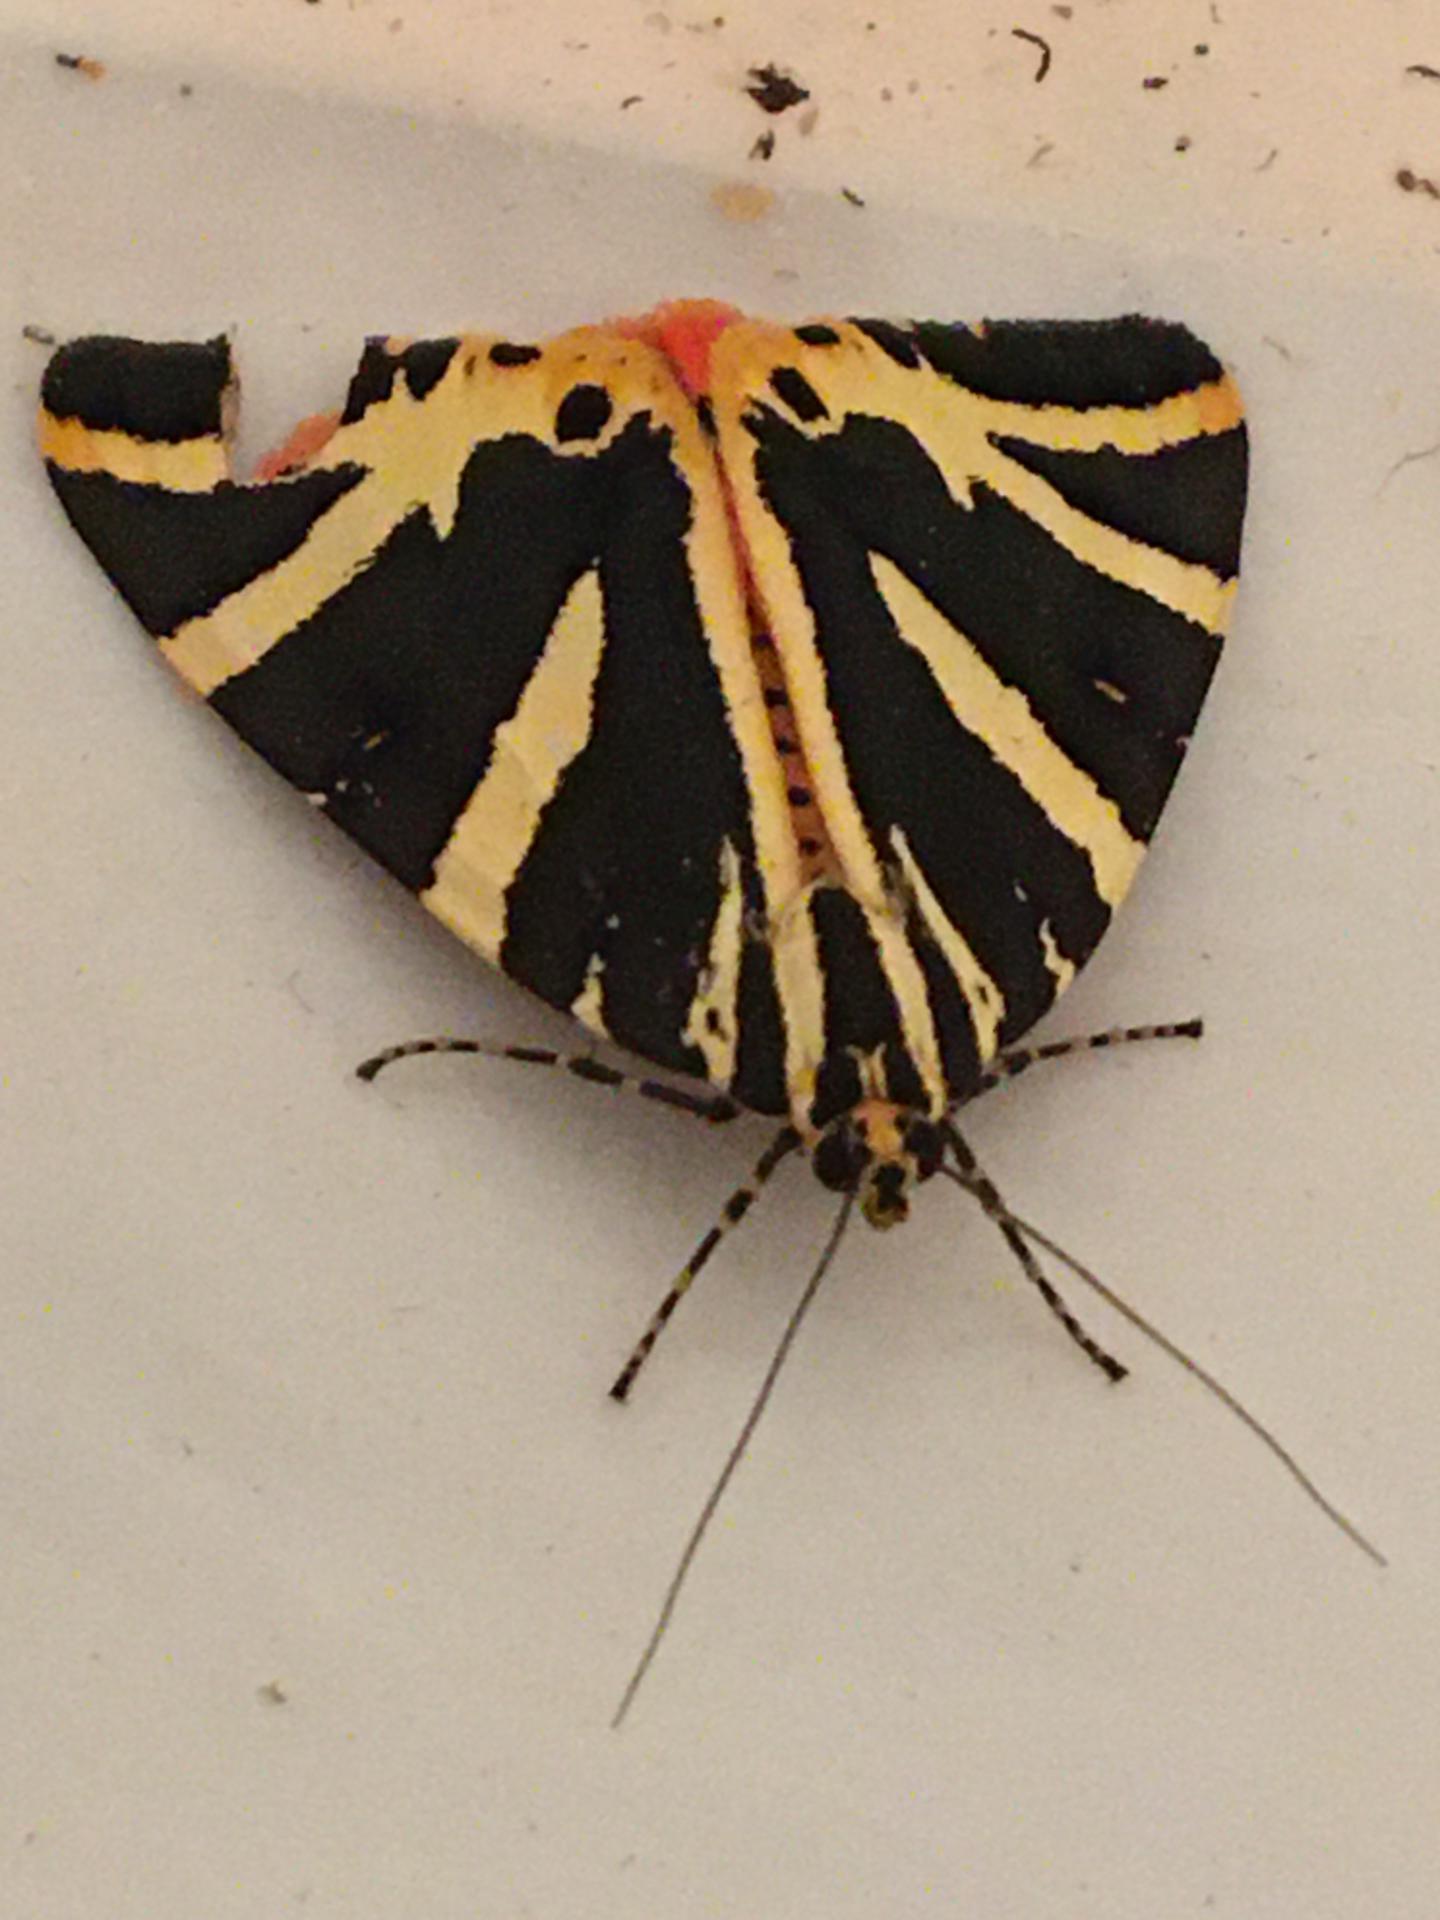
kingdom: Animalia
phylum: Arthropoda
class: Insecta
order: Lepidoptera
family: Erebidae
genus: Euplagia
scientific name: Euplagia quadripunctaria
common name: Jersey tiger
